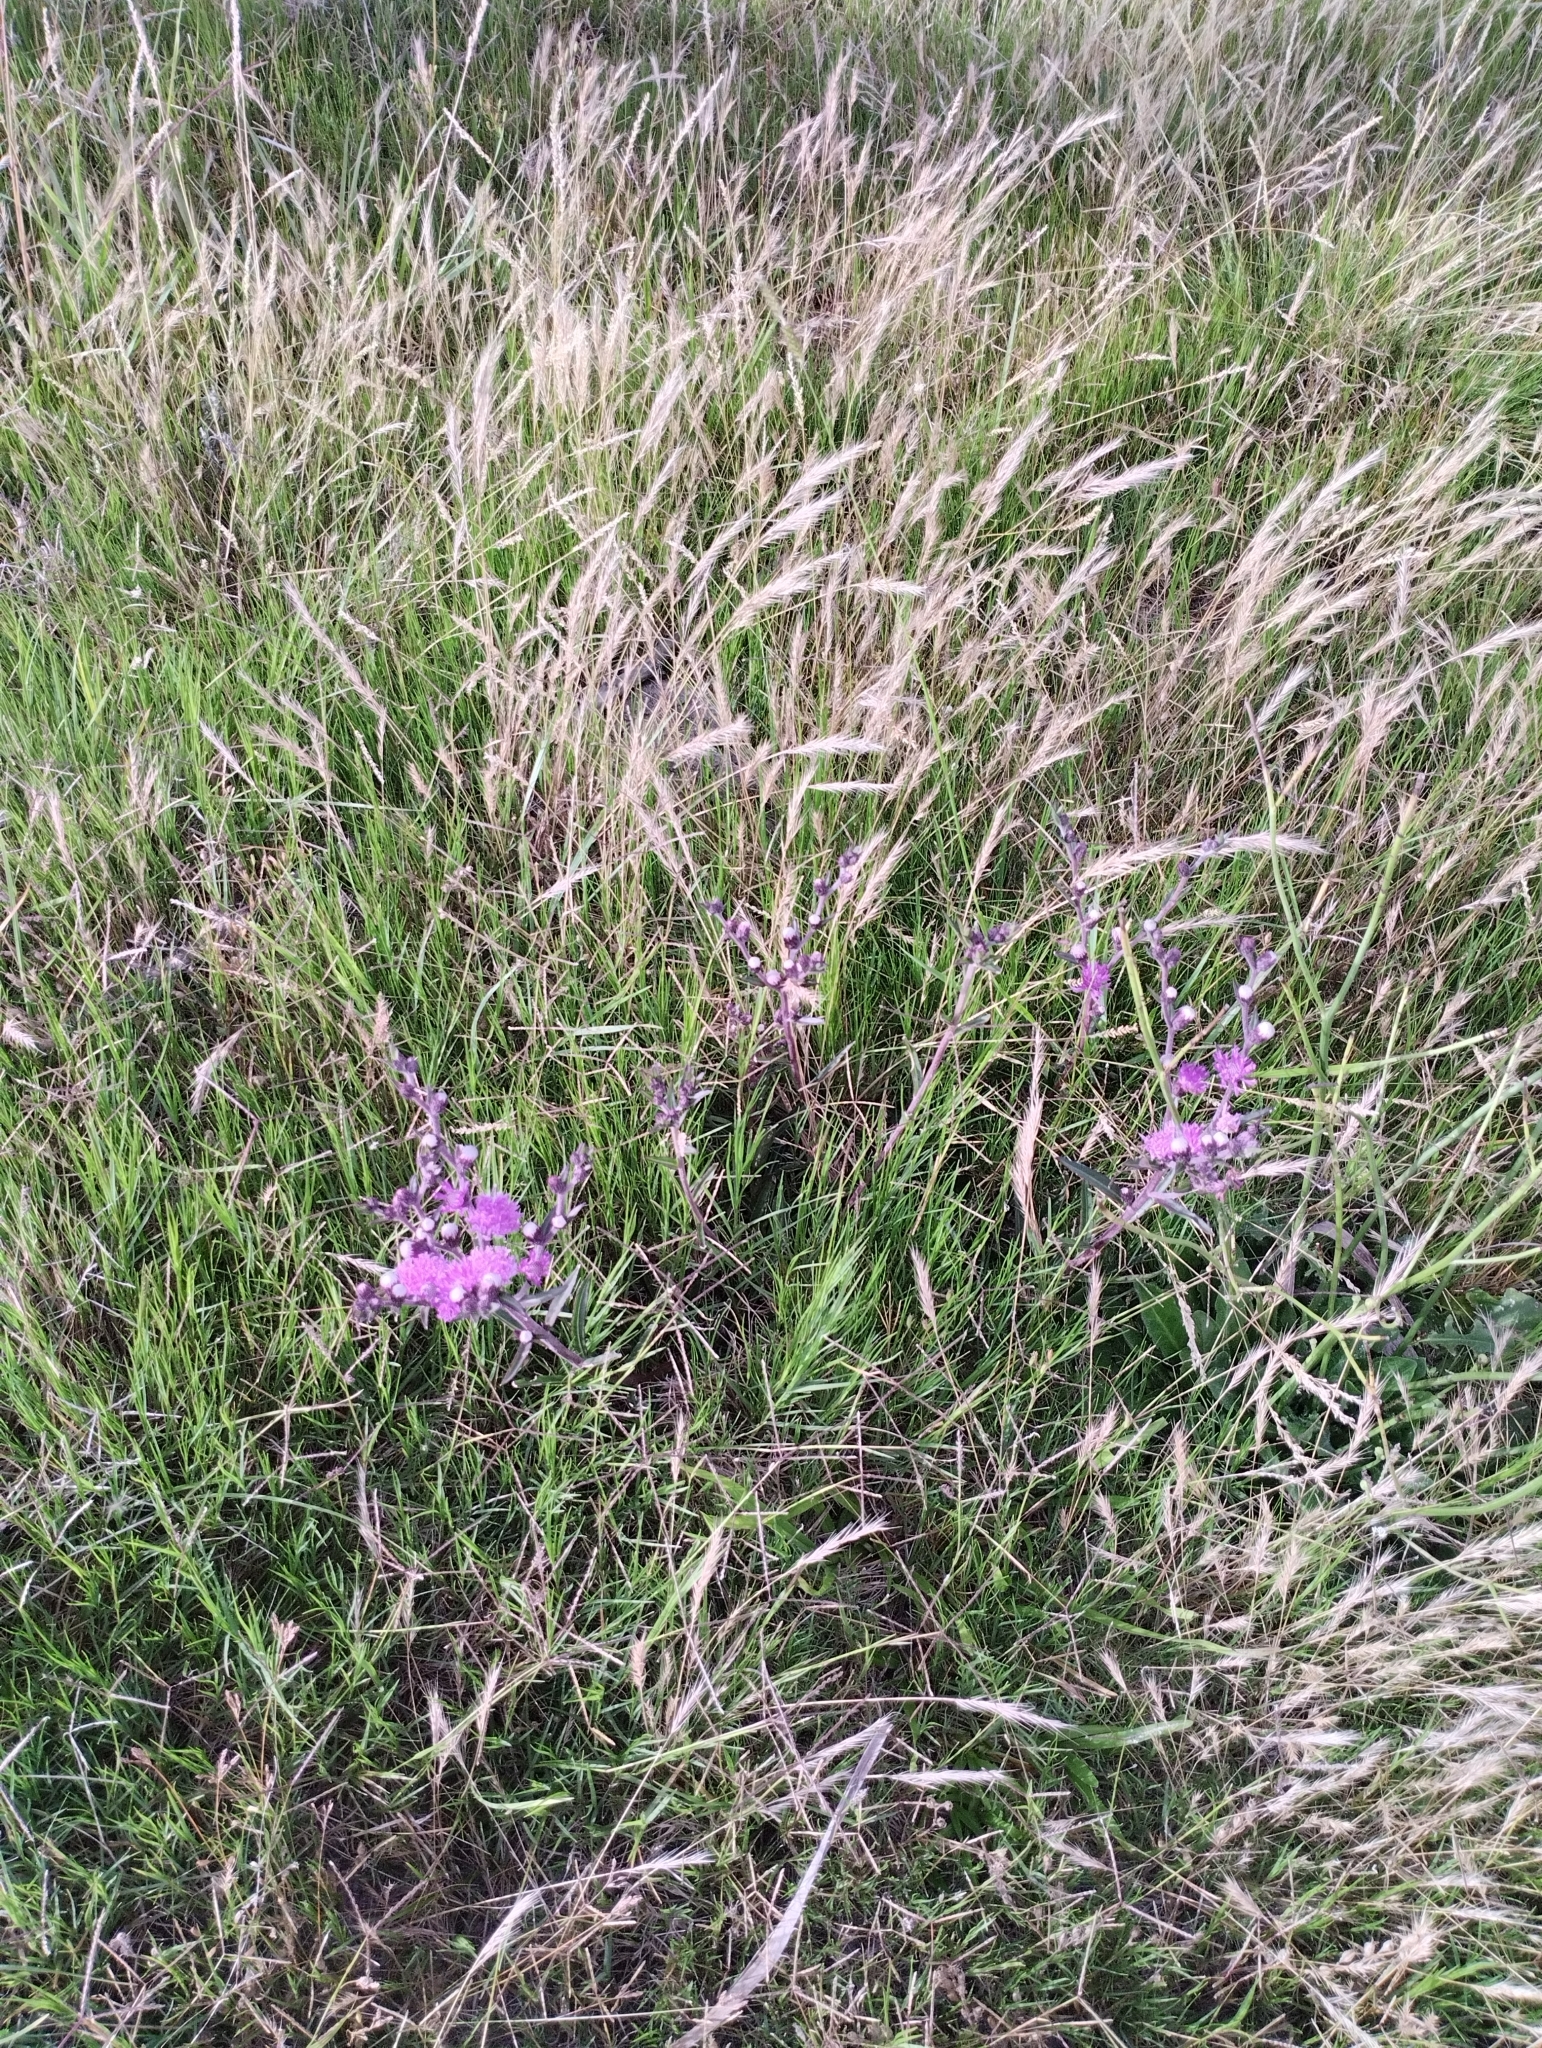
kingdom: Plantae
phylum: Tracheophyta
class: Magnoliopsida
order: Asterales
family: Asteraceae
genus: Chrysolaena
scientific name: Chrysolaena flexuosa
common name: Zig-zag vernonia
